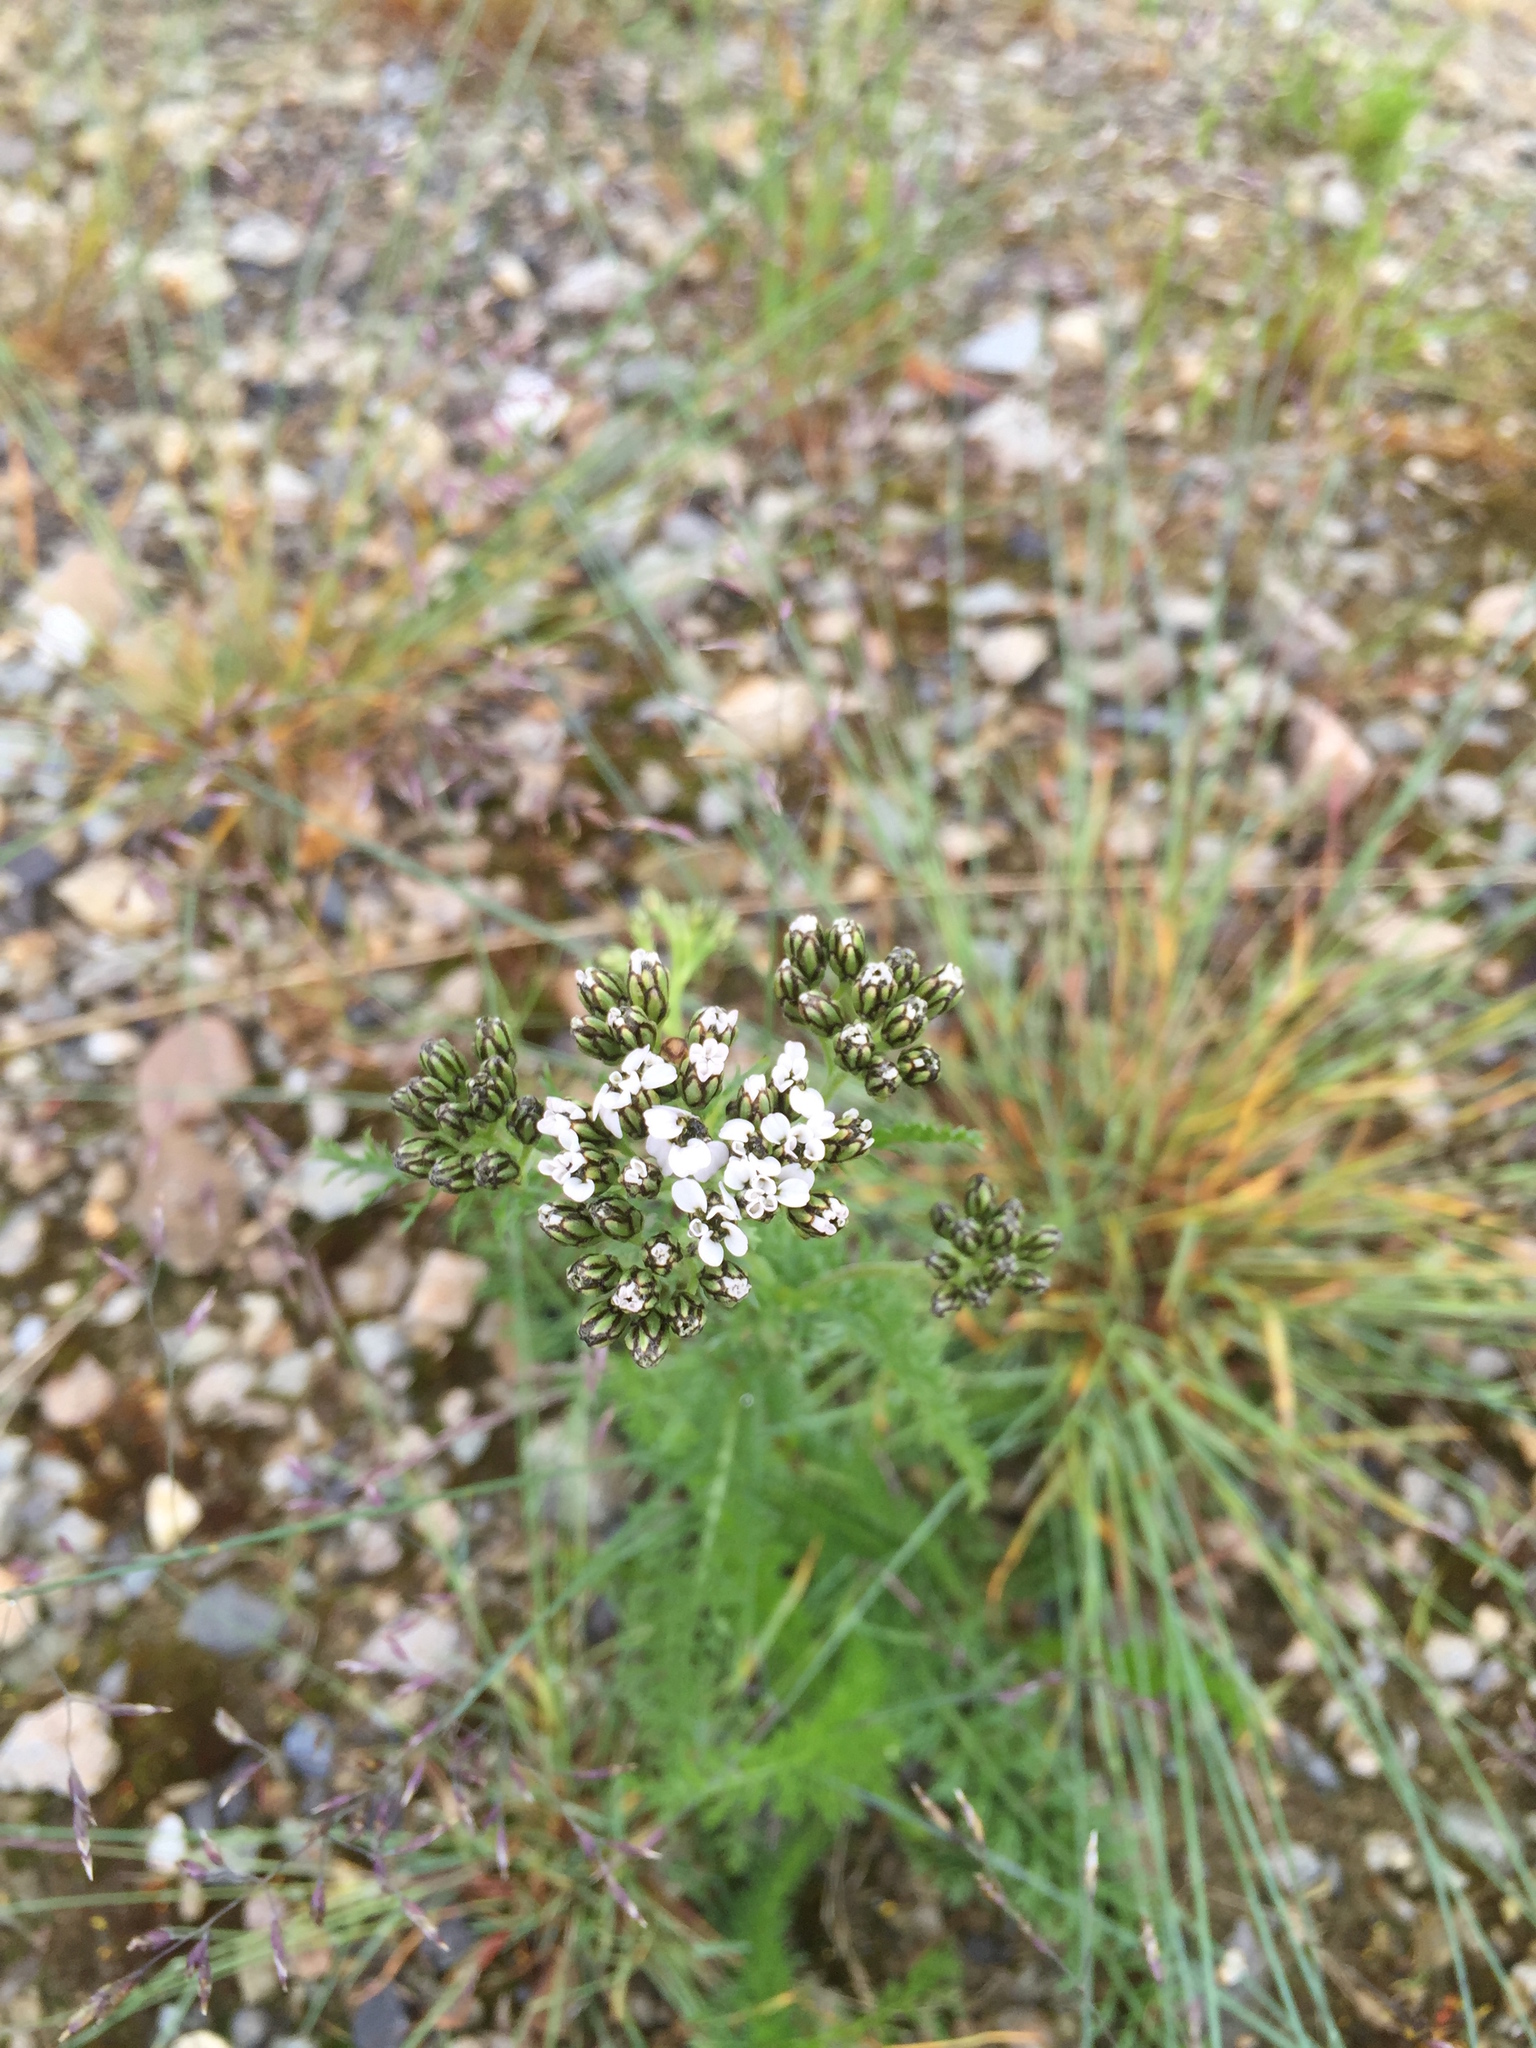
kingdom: Plantae
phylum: Tracheophyta
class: Magnoliopsida
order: Asterales
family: Asteraceae
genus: Achillea
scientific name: Achillea millefolium
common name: Yarrow
